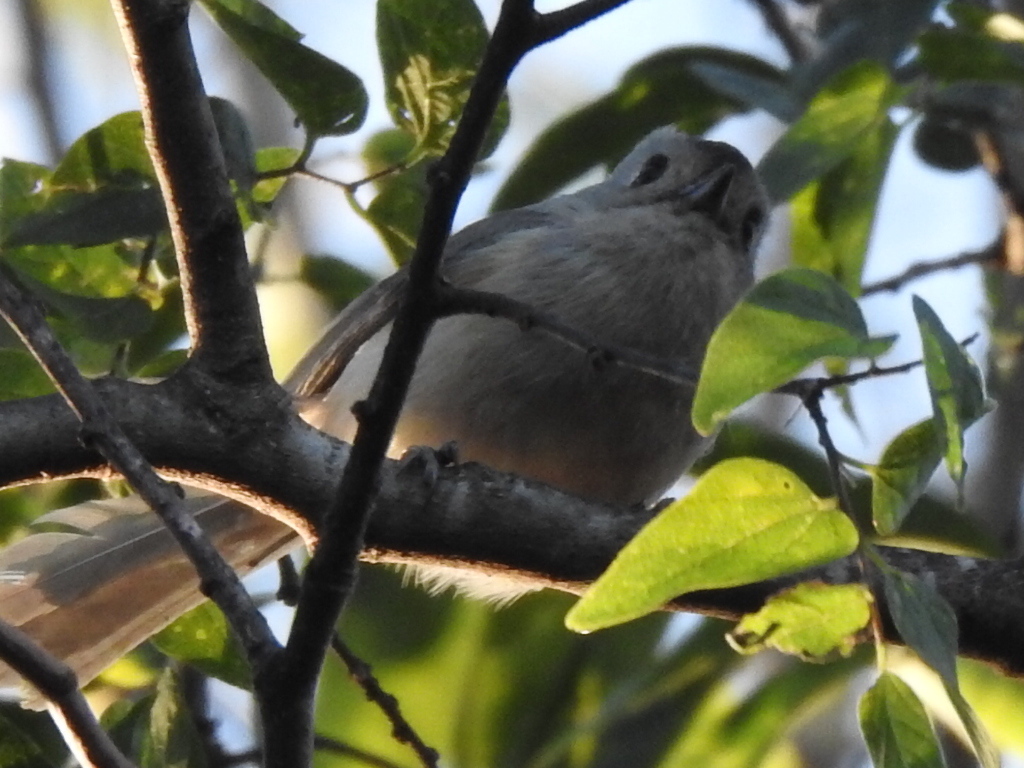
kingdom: Animalia
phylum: Chordata
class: Aves
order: Passeriformes
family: Paridae
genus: Baeolophus
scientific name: Baeolophus atricristatus
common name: Black-crested titmouse
